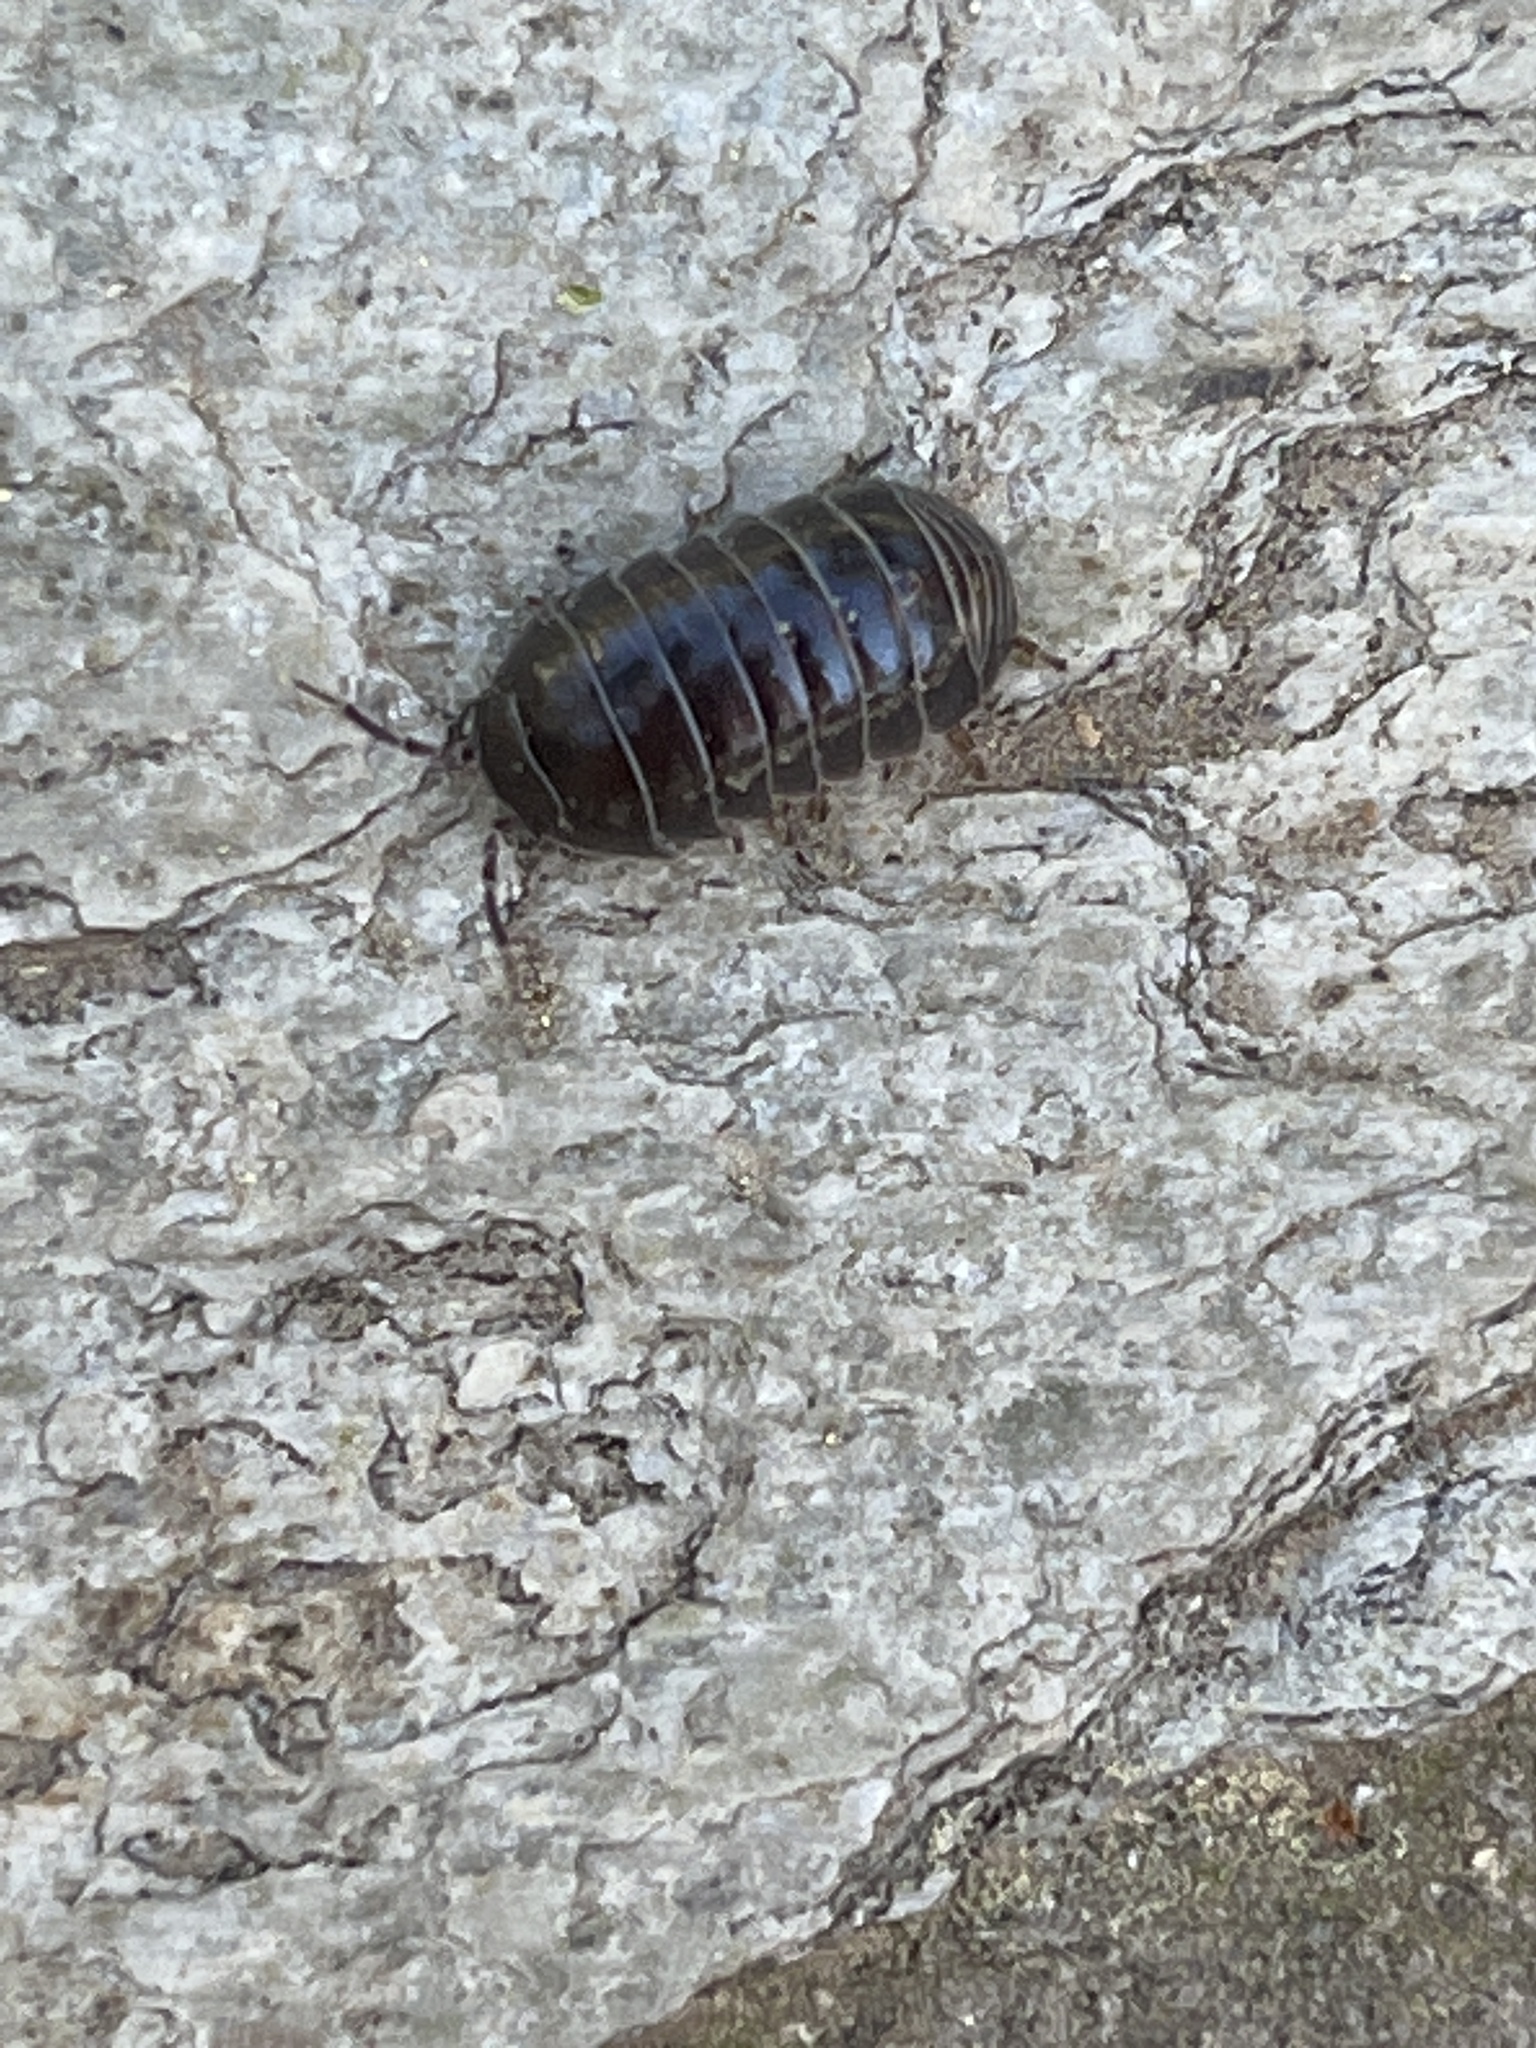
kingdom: Animalia
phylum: Arthropoda
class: Malacostraca
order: Isopoda
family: Armadillidiidae
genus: Armadillidium
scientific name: Armadillidium vulgare
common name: Common pill woodlouse
